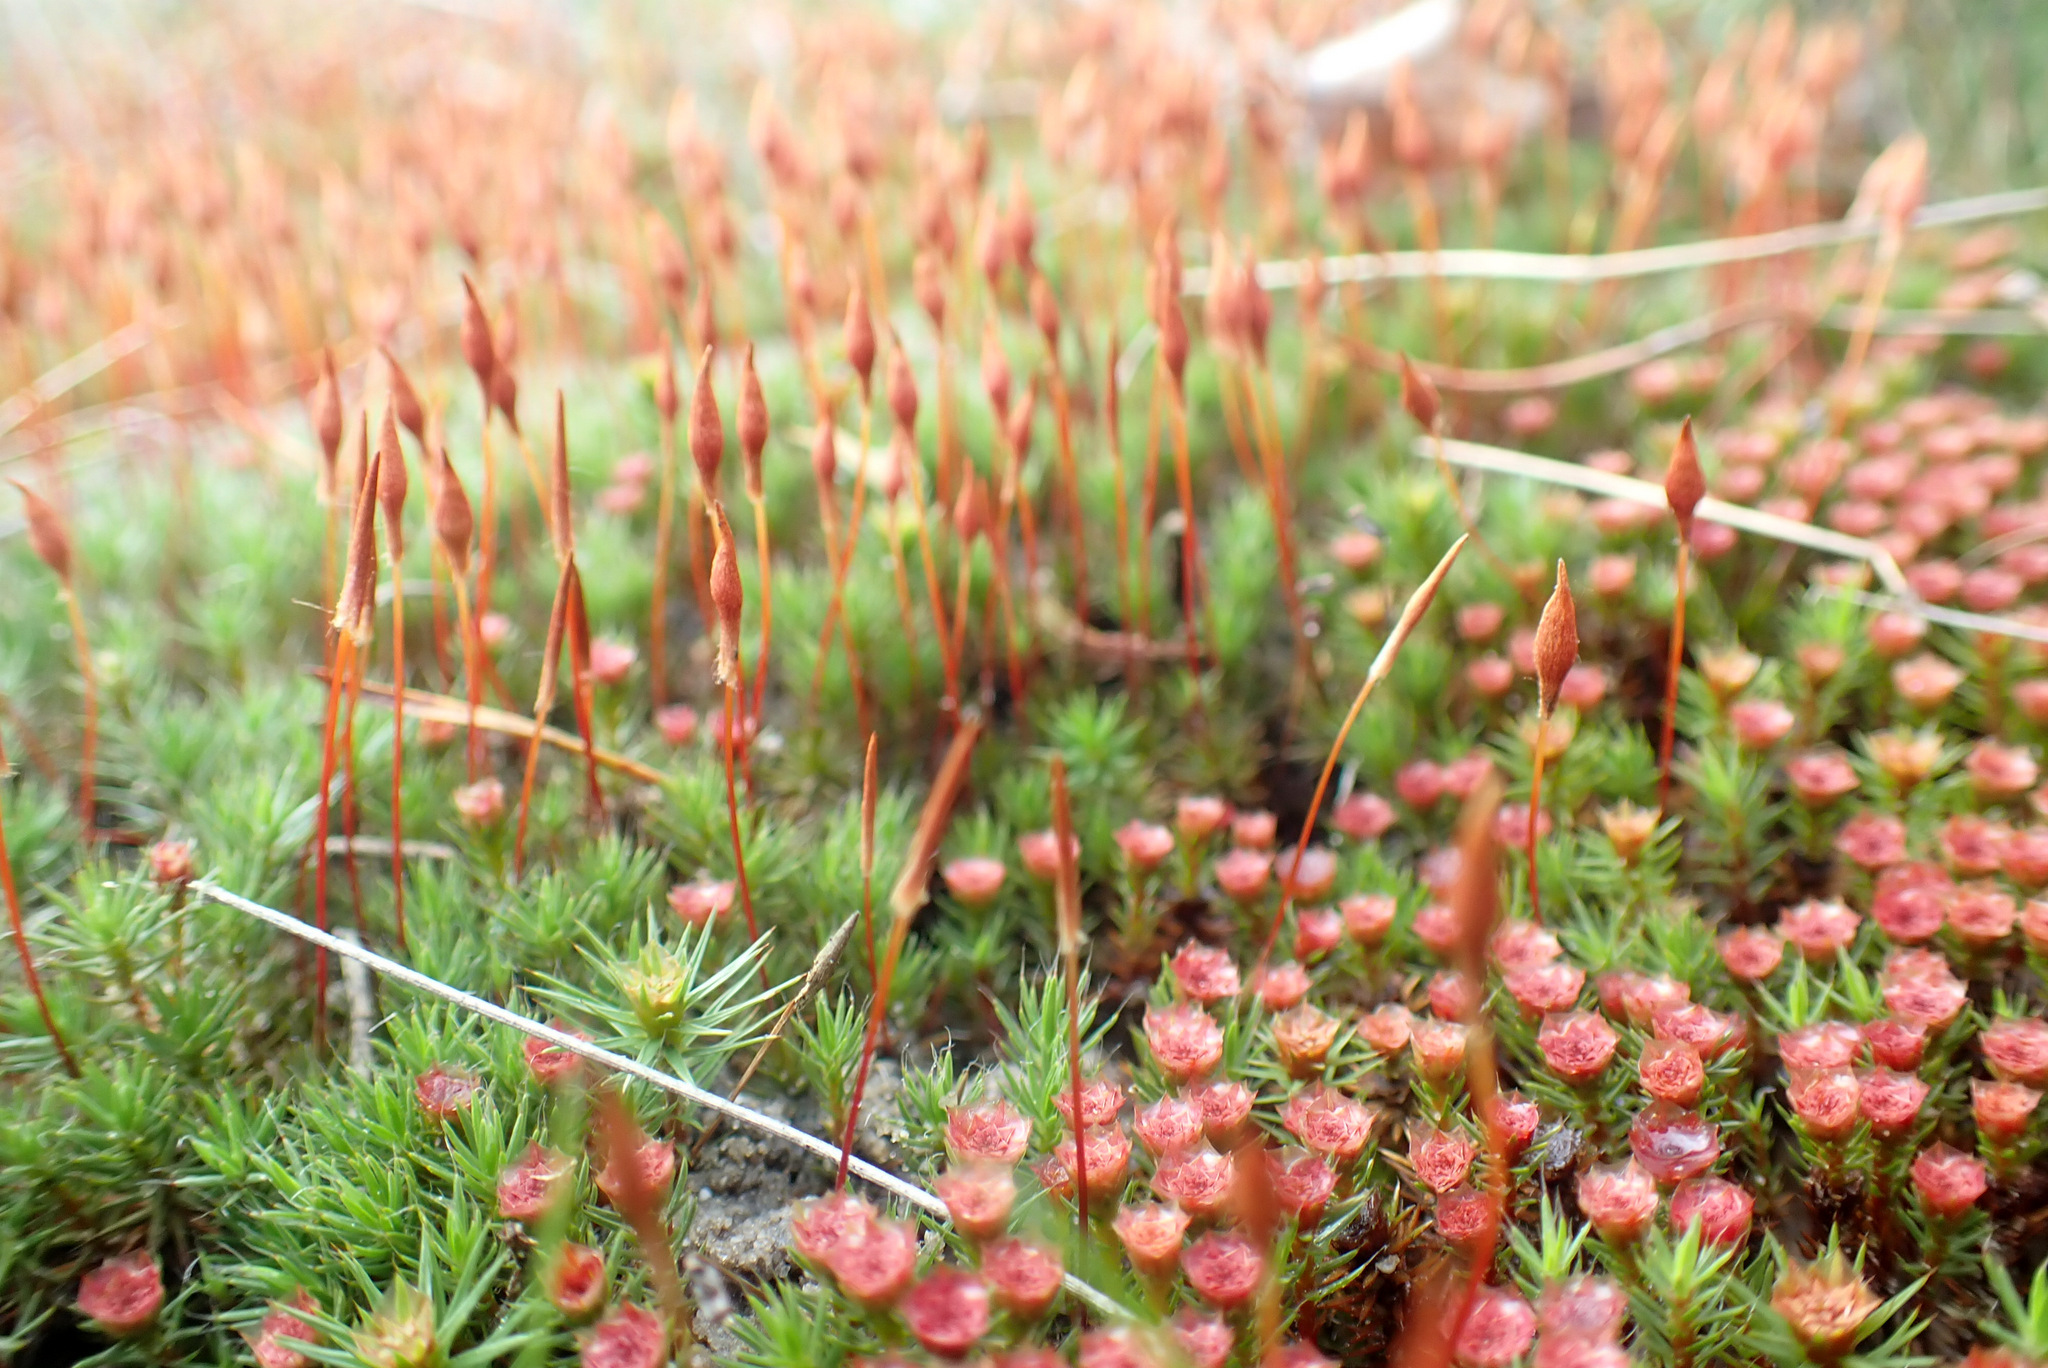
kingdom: Plantae
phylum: Bryophyta
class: Polytrichopsida
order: Polytrichales
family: Polytrichaceae
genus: Polytrichum
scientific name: Polytrichum piliferum
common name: Bristly haircap
